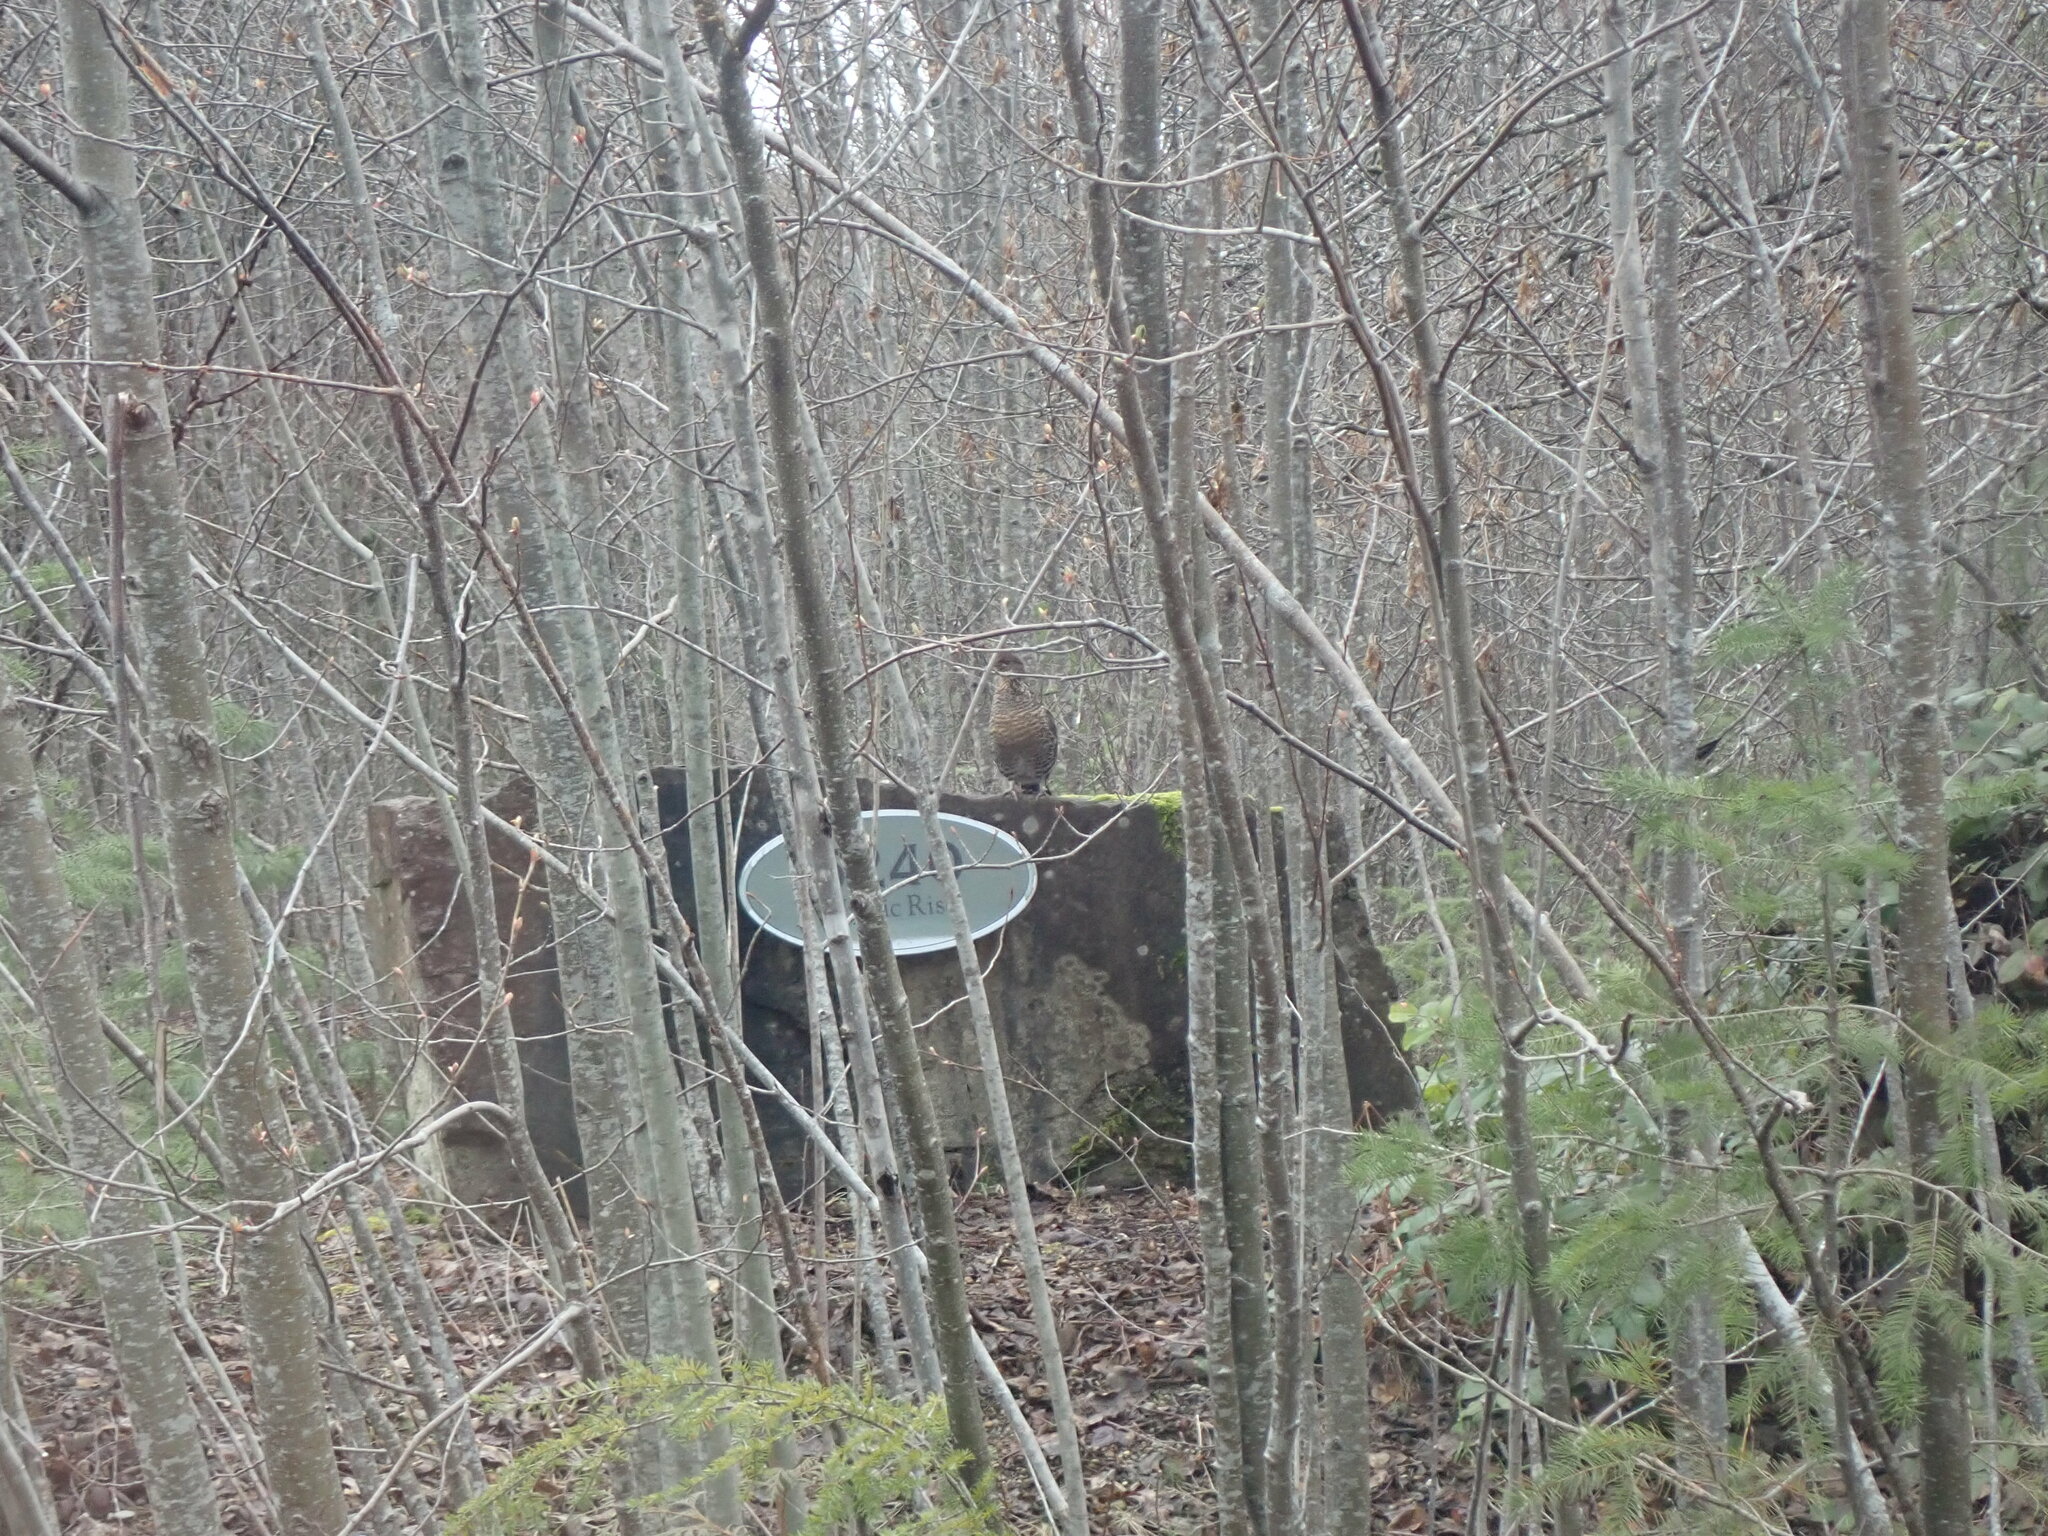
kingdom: Animalia
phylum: Chordata
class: Aves
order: Galliformes
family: Phasianidae
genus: Bonasa
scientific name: Bonasa umbellus
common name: Ruffed grouse
